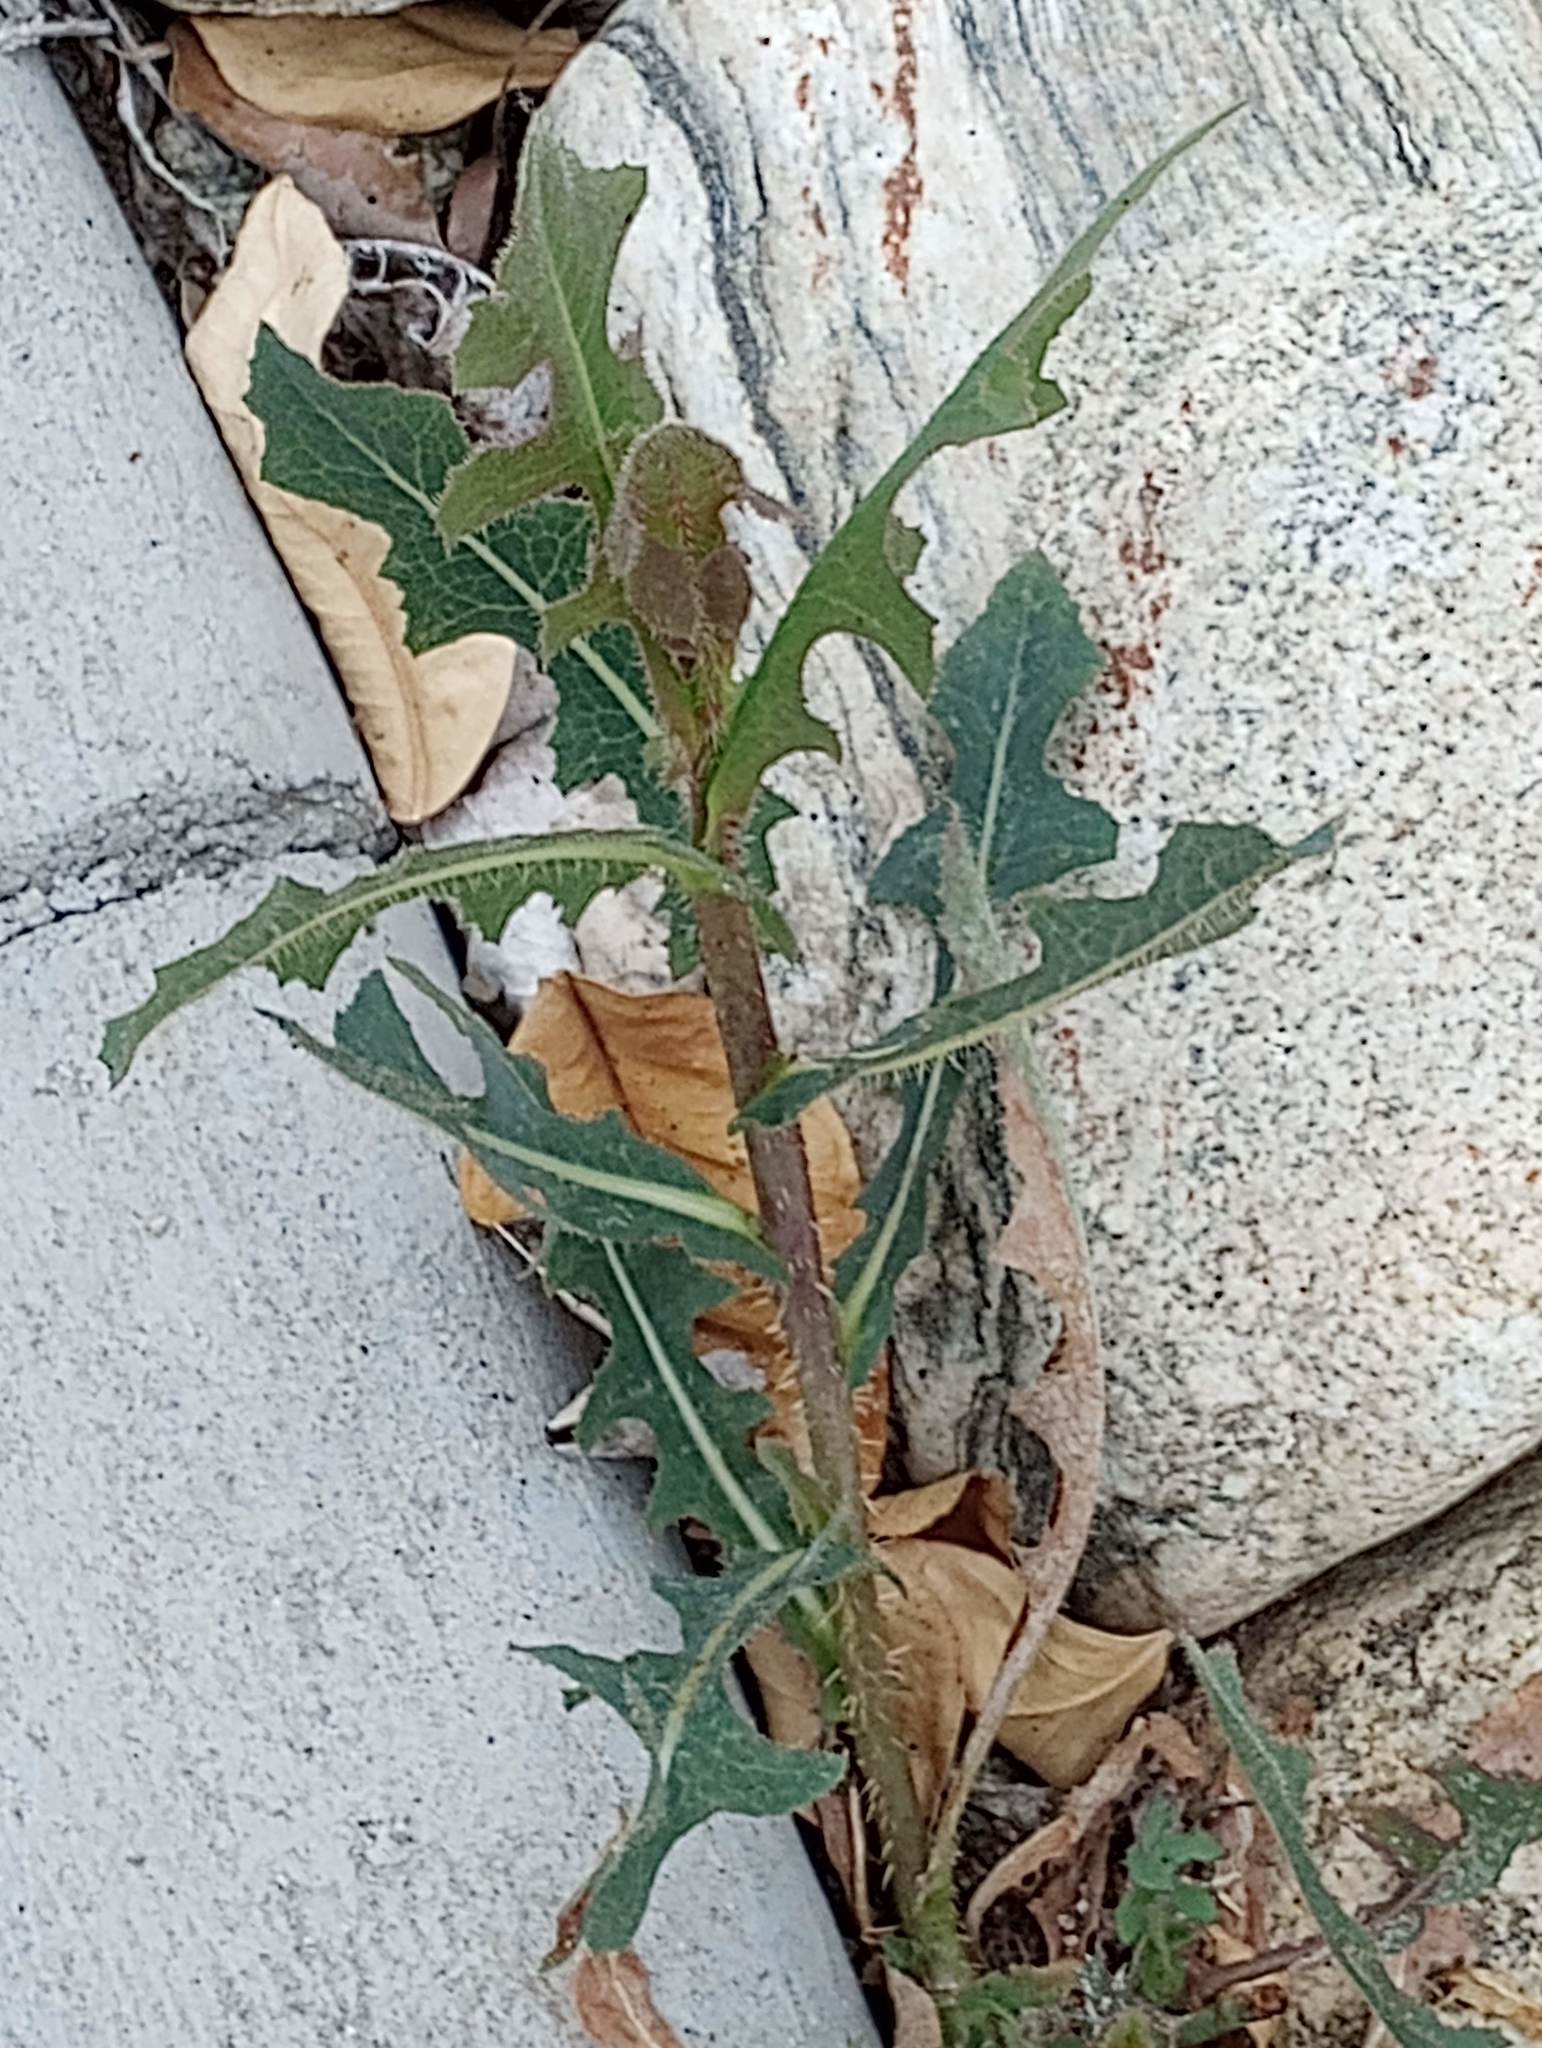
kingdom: Plantae
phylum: Tracheophyta
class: Magnoliopsida
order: Asterales
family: Asteraceae
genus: Lactuca
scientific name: Lactuca serriola
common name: Prickly lettuce
